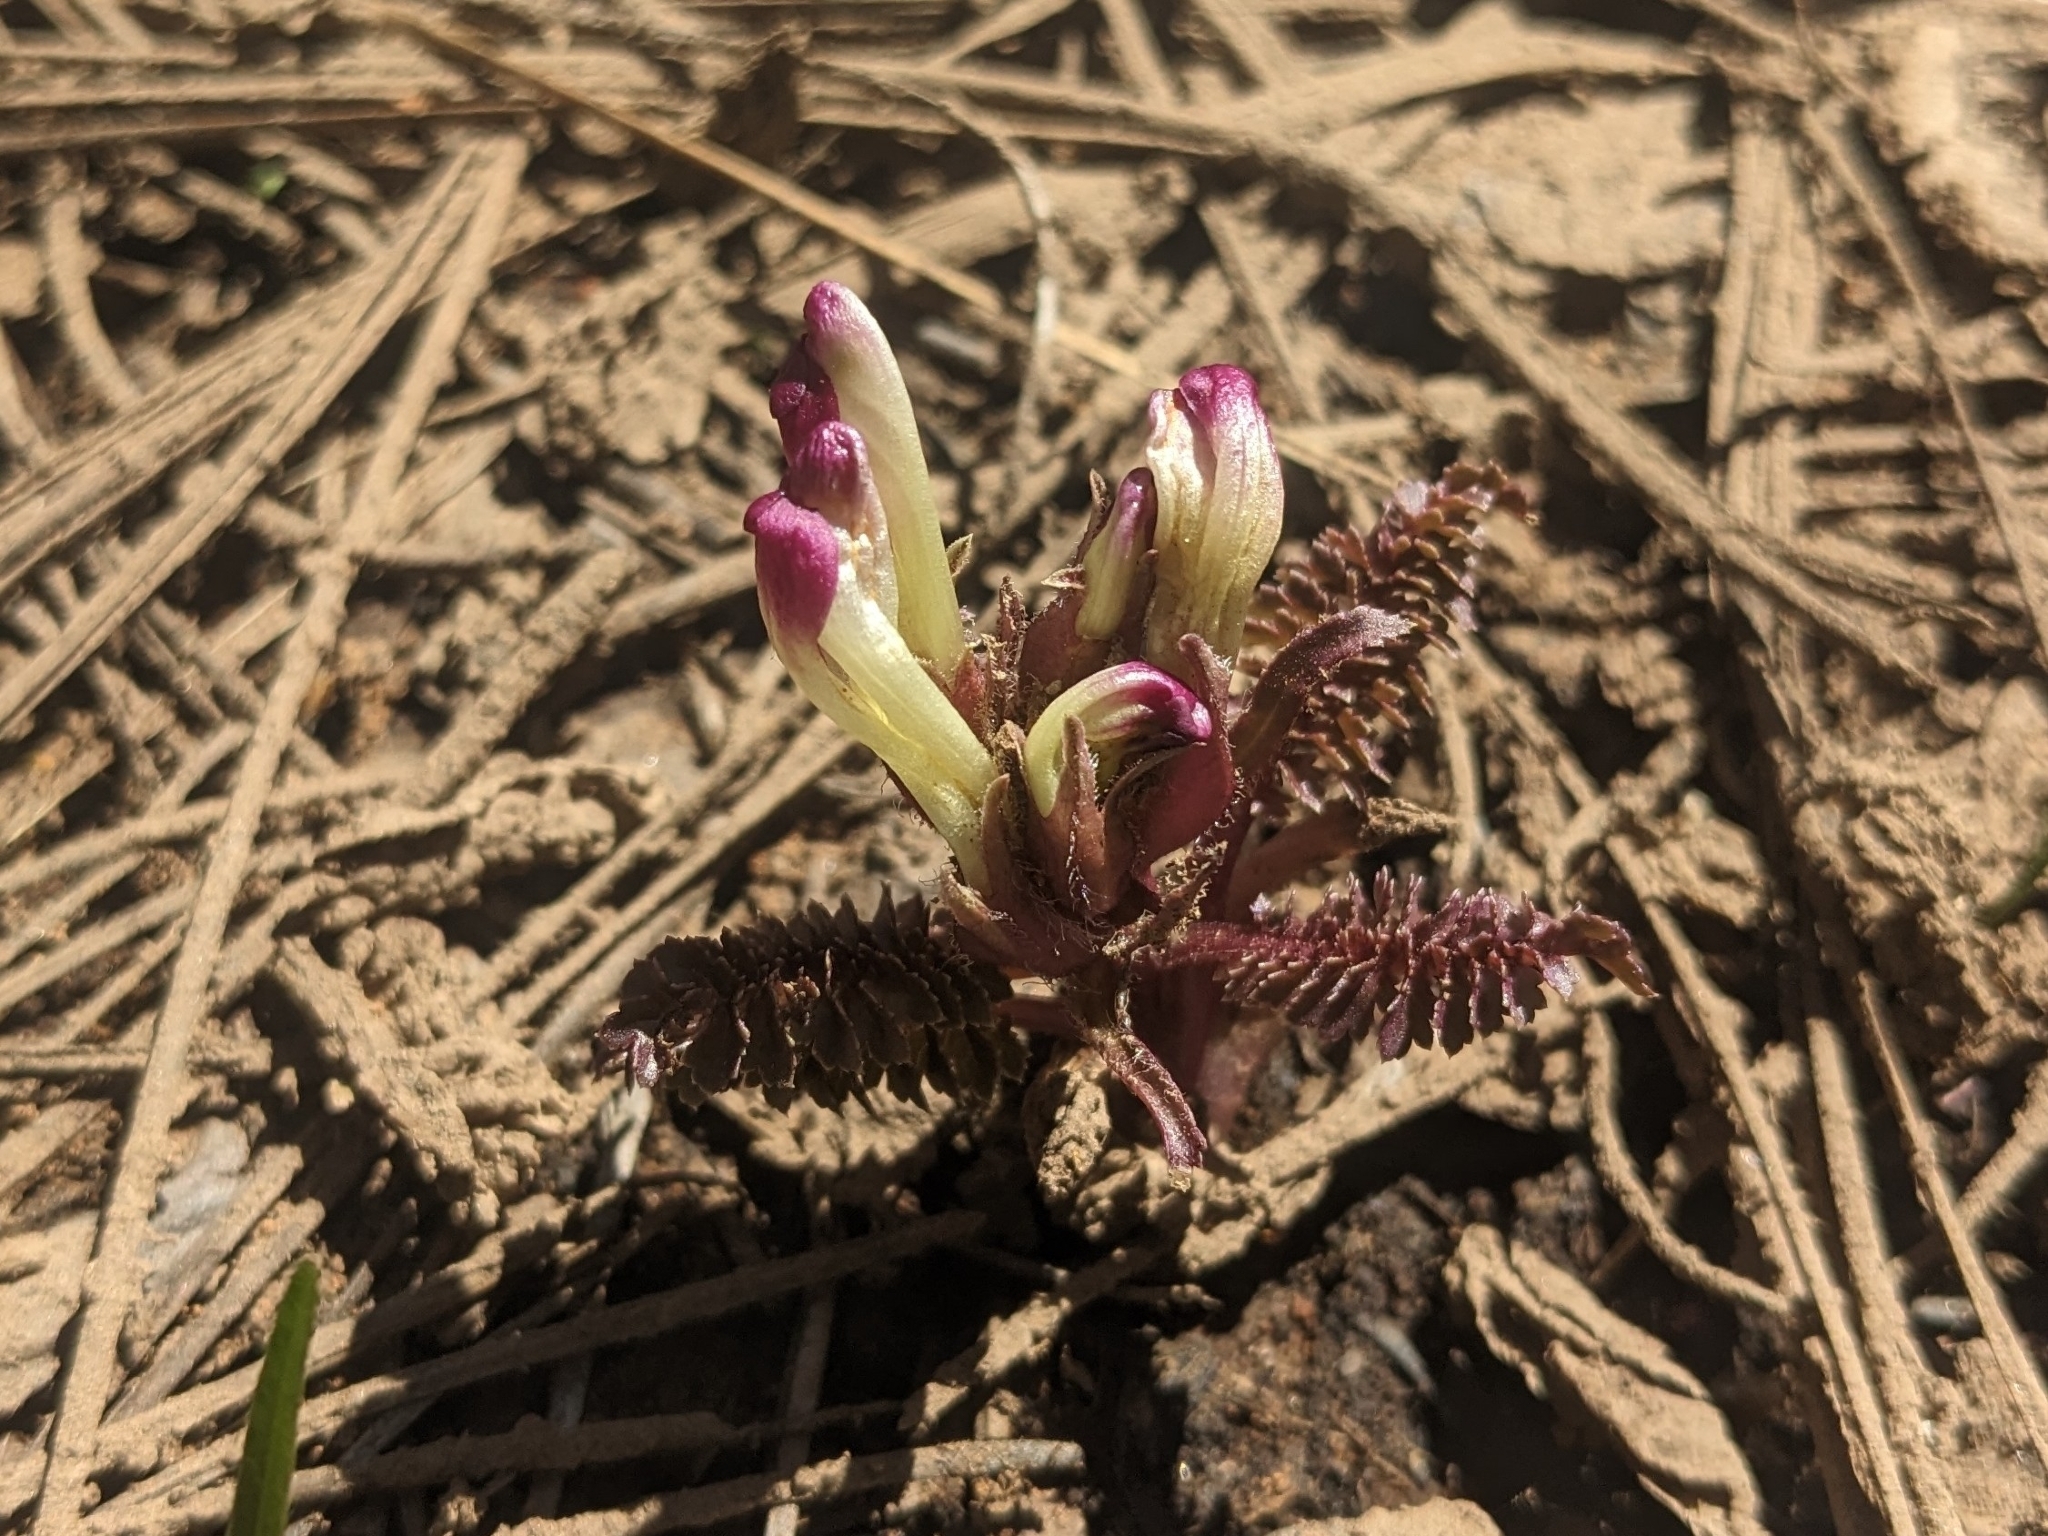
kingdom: Plantae
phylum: Tracheophyta
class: Magnoliopsida
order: Lamiales
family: Orobanchaceae
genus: Pedicularis
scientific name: Pedicularis centranthera
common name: Dwarf lousewort
